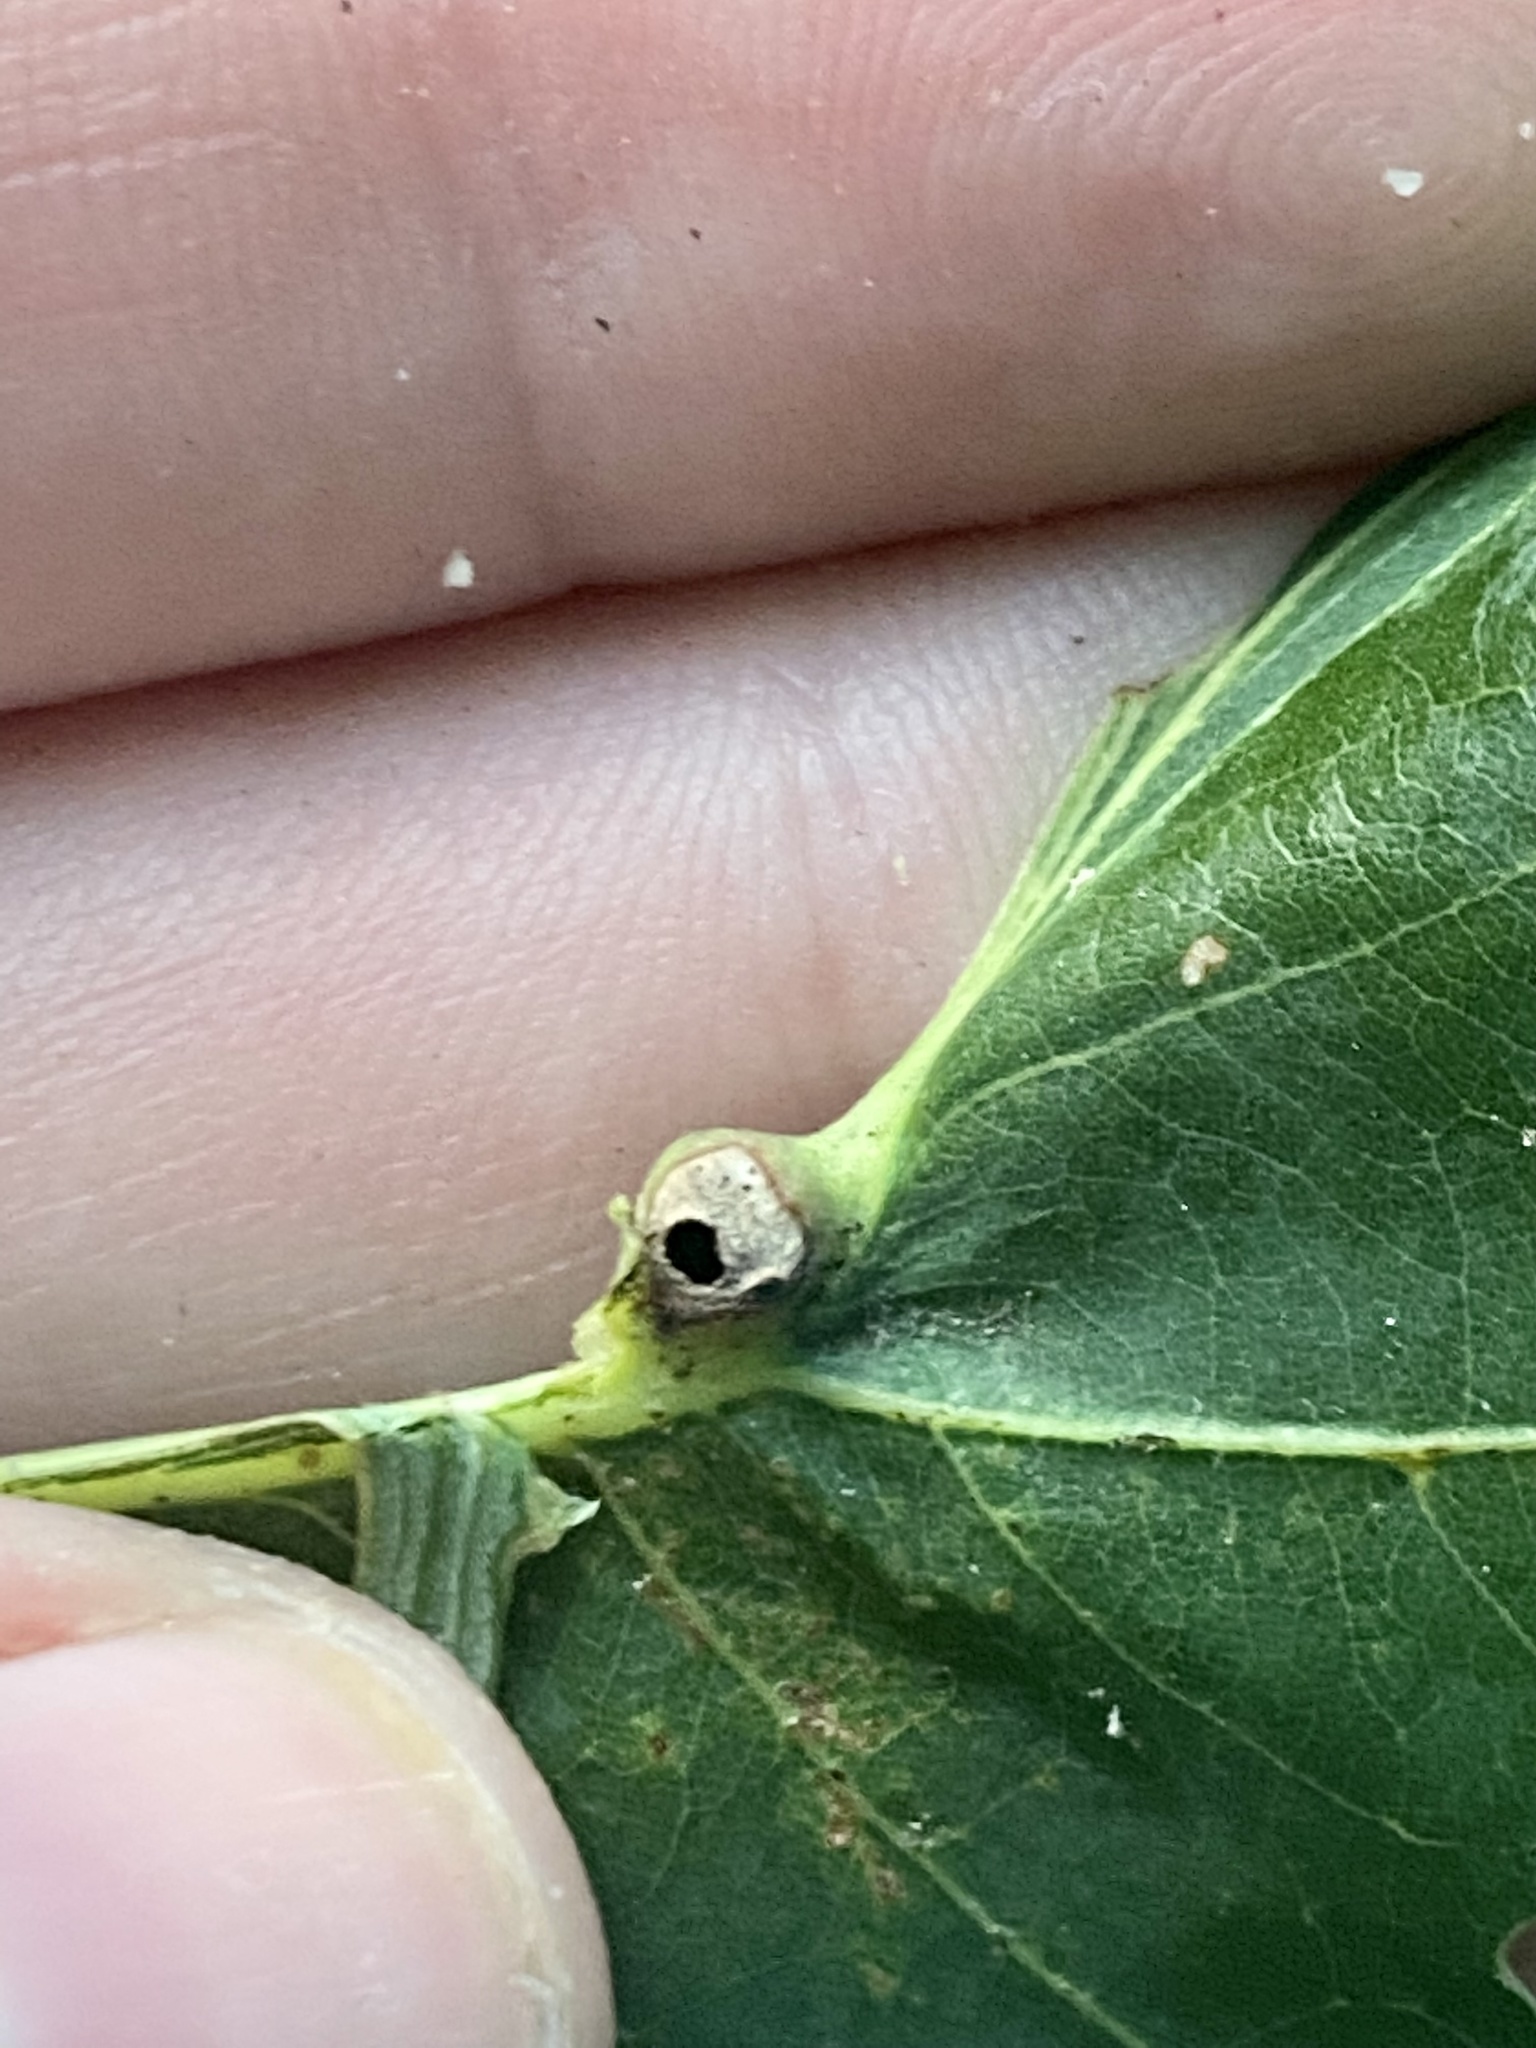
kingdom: Animalia
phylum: Arthropoda
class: Insecta
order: Hymenoptera
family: Cynipidae
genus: Andricus
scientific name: Andricus
